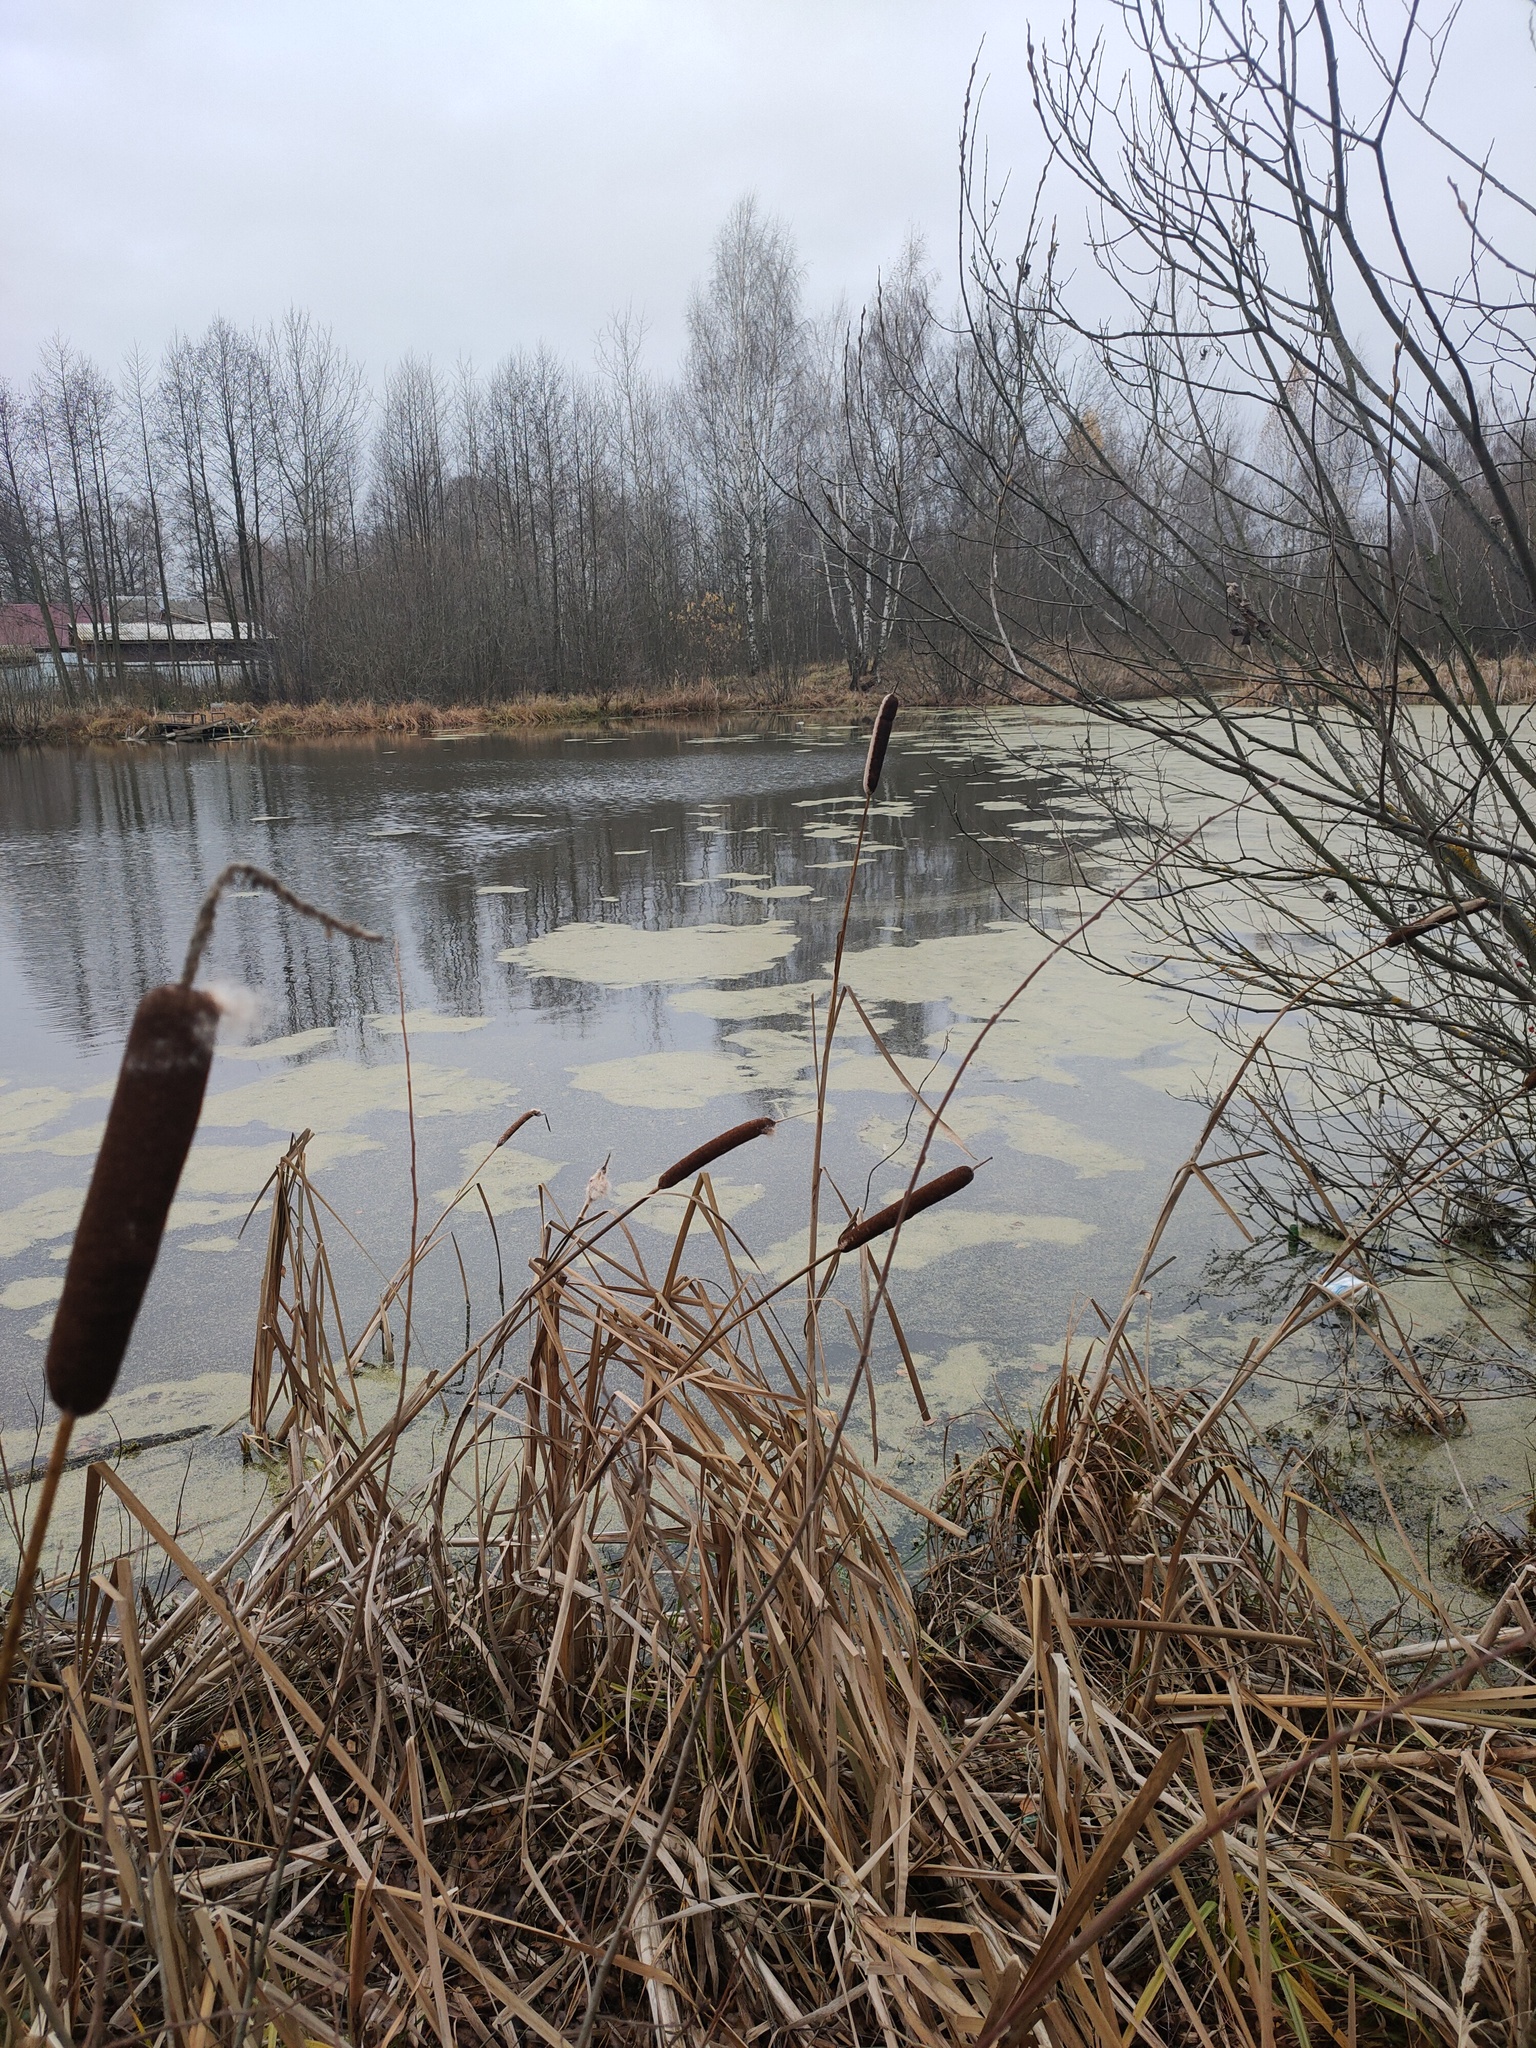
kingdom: Plantae
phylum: Tracheophyta
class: Liliopsida
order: Poales
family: Typhaceae
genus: Typha
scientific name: Typha latifolia
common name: Broadleaf cattail
